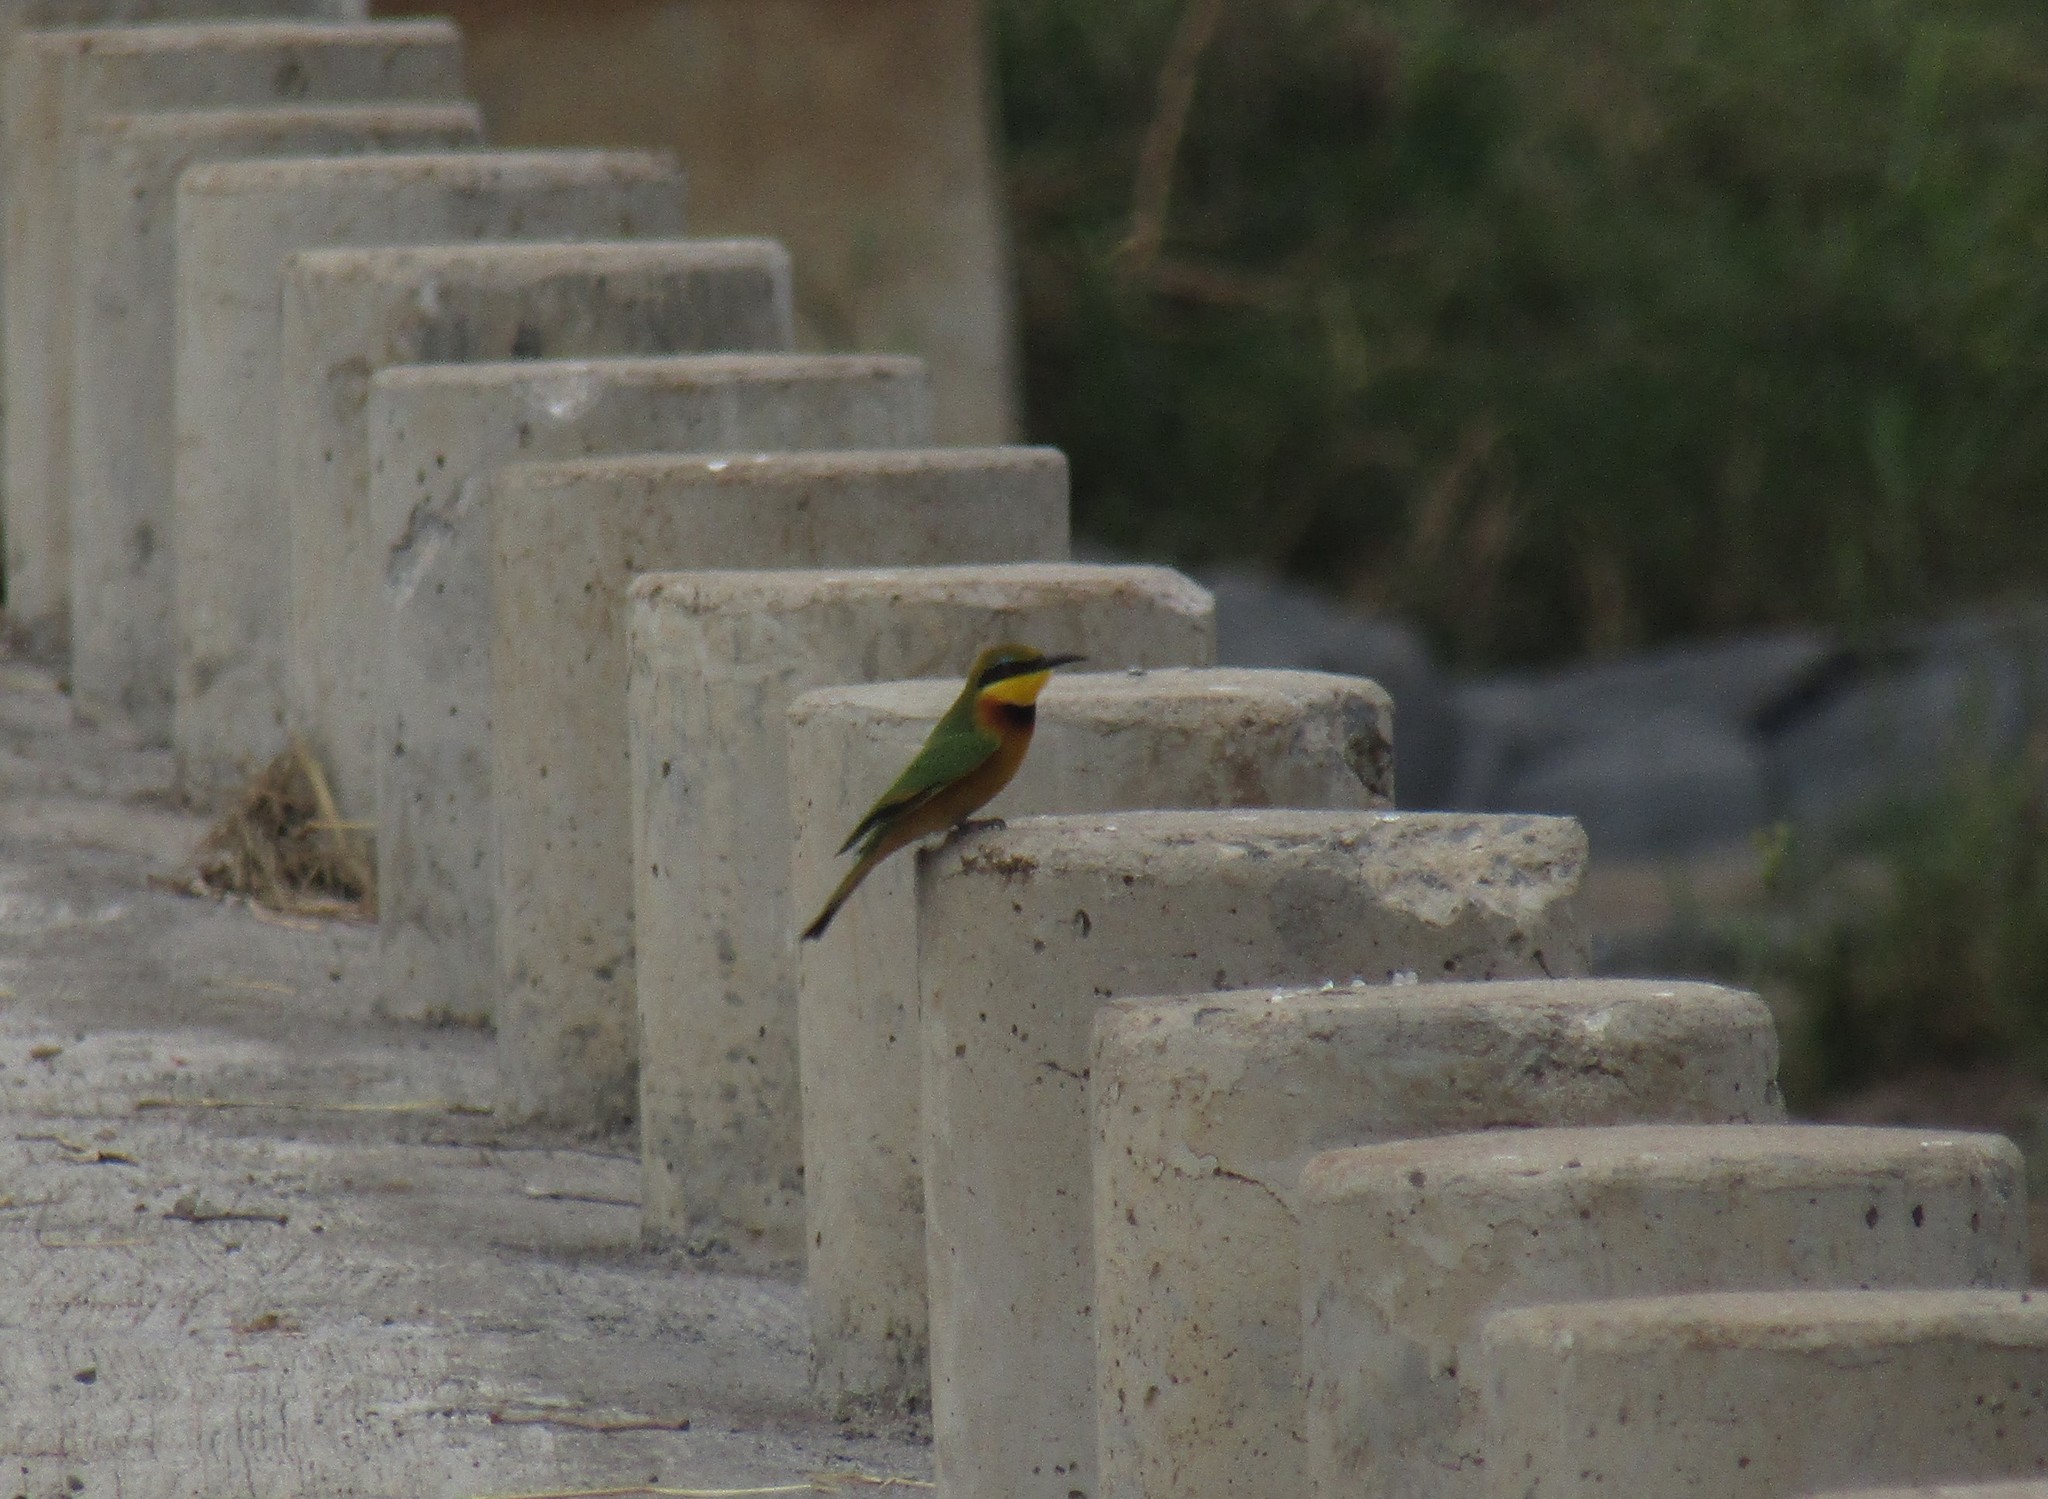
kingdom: Animalia
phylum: Chordata
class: Aves
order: Coraciiformes
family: Meropidae
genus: Merops
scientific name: Merops pusillus
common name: Little bee-eater
